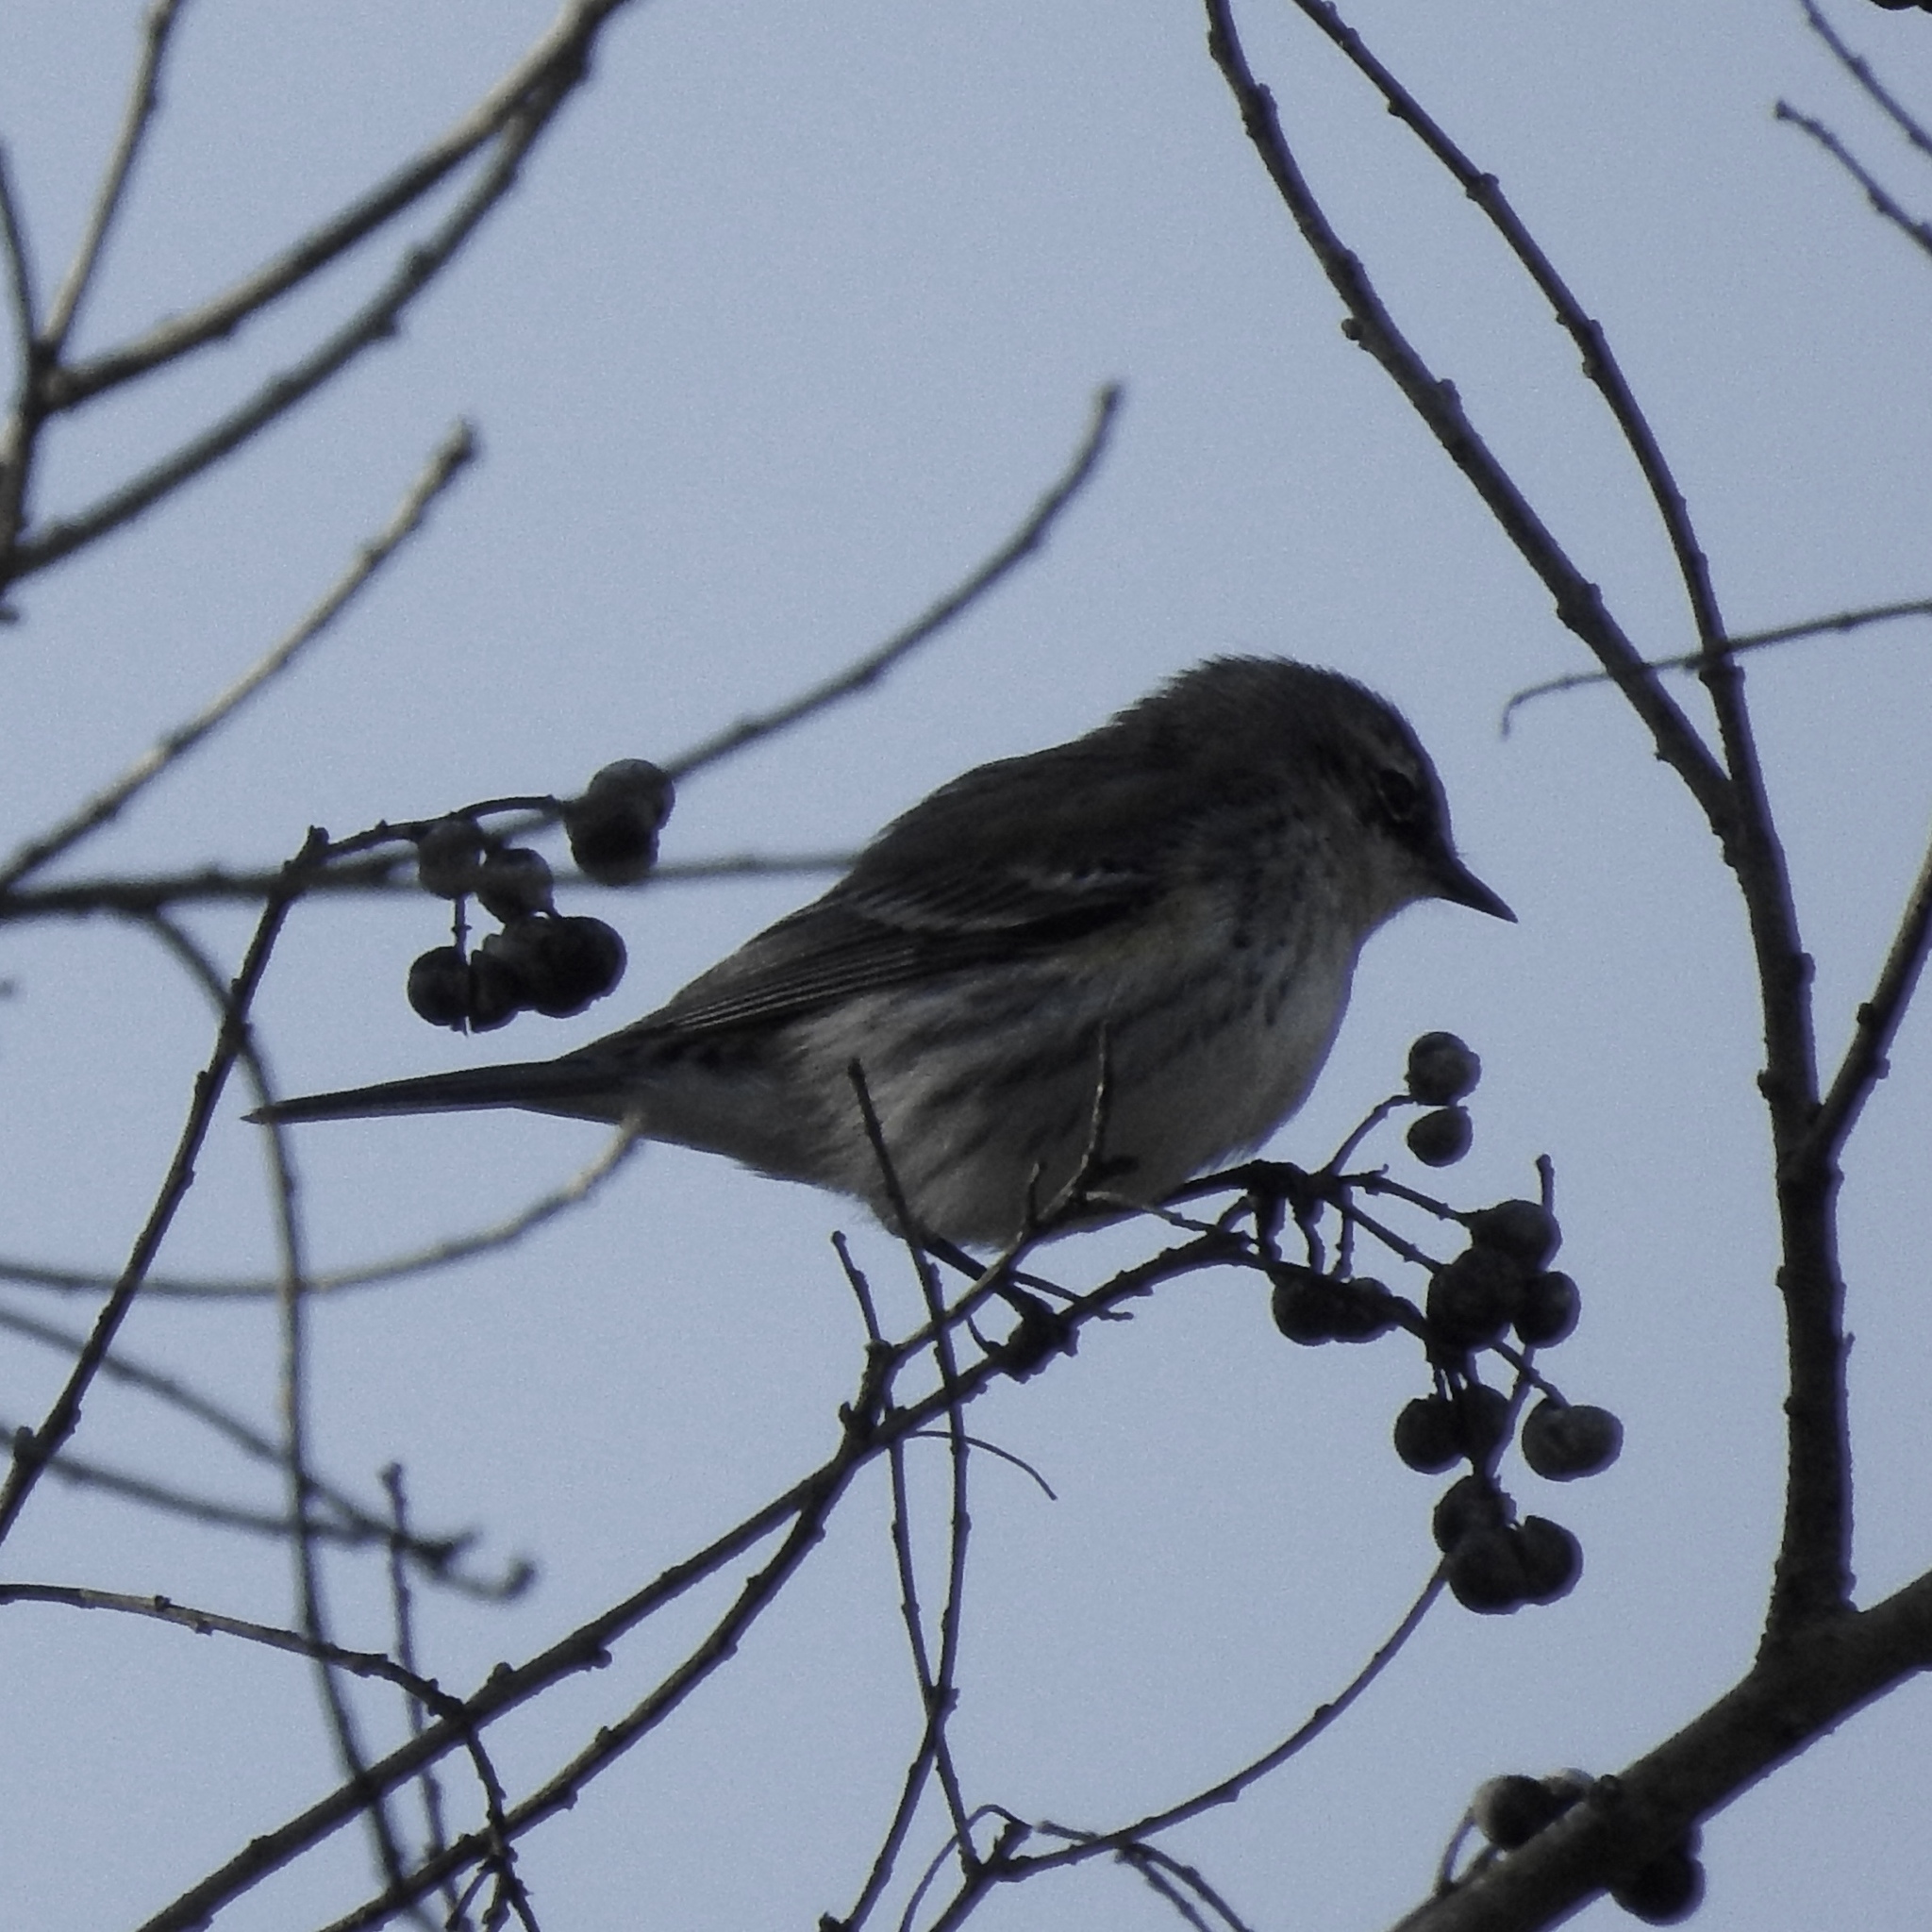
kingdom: Animalia
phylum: Chordata
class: Aves
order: Passeriformes
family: Parulidae
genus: Setophaga
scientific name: Setophaga coronata
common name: Myrtle warbler
